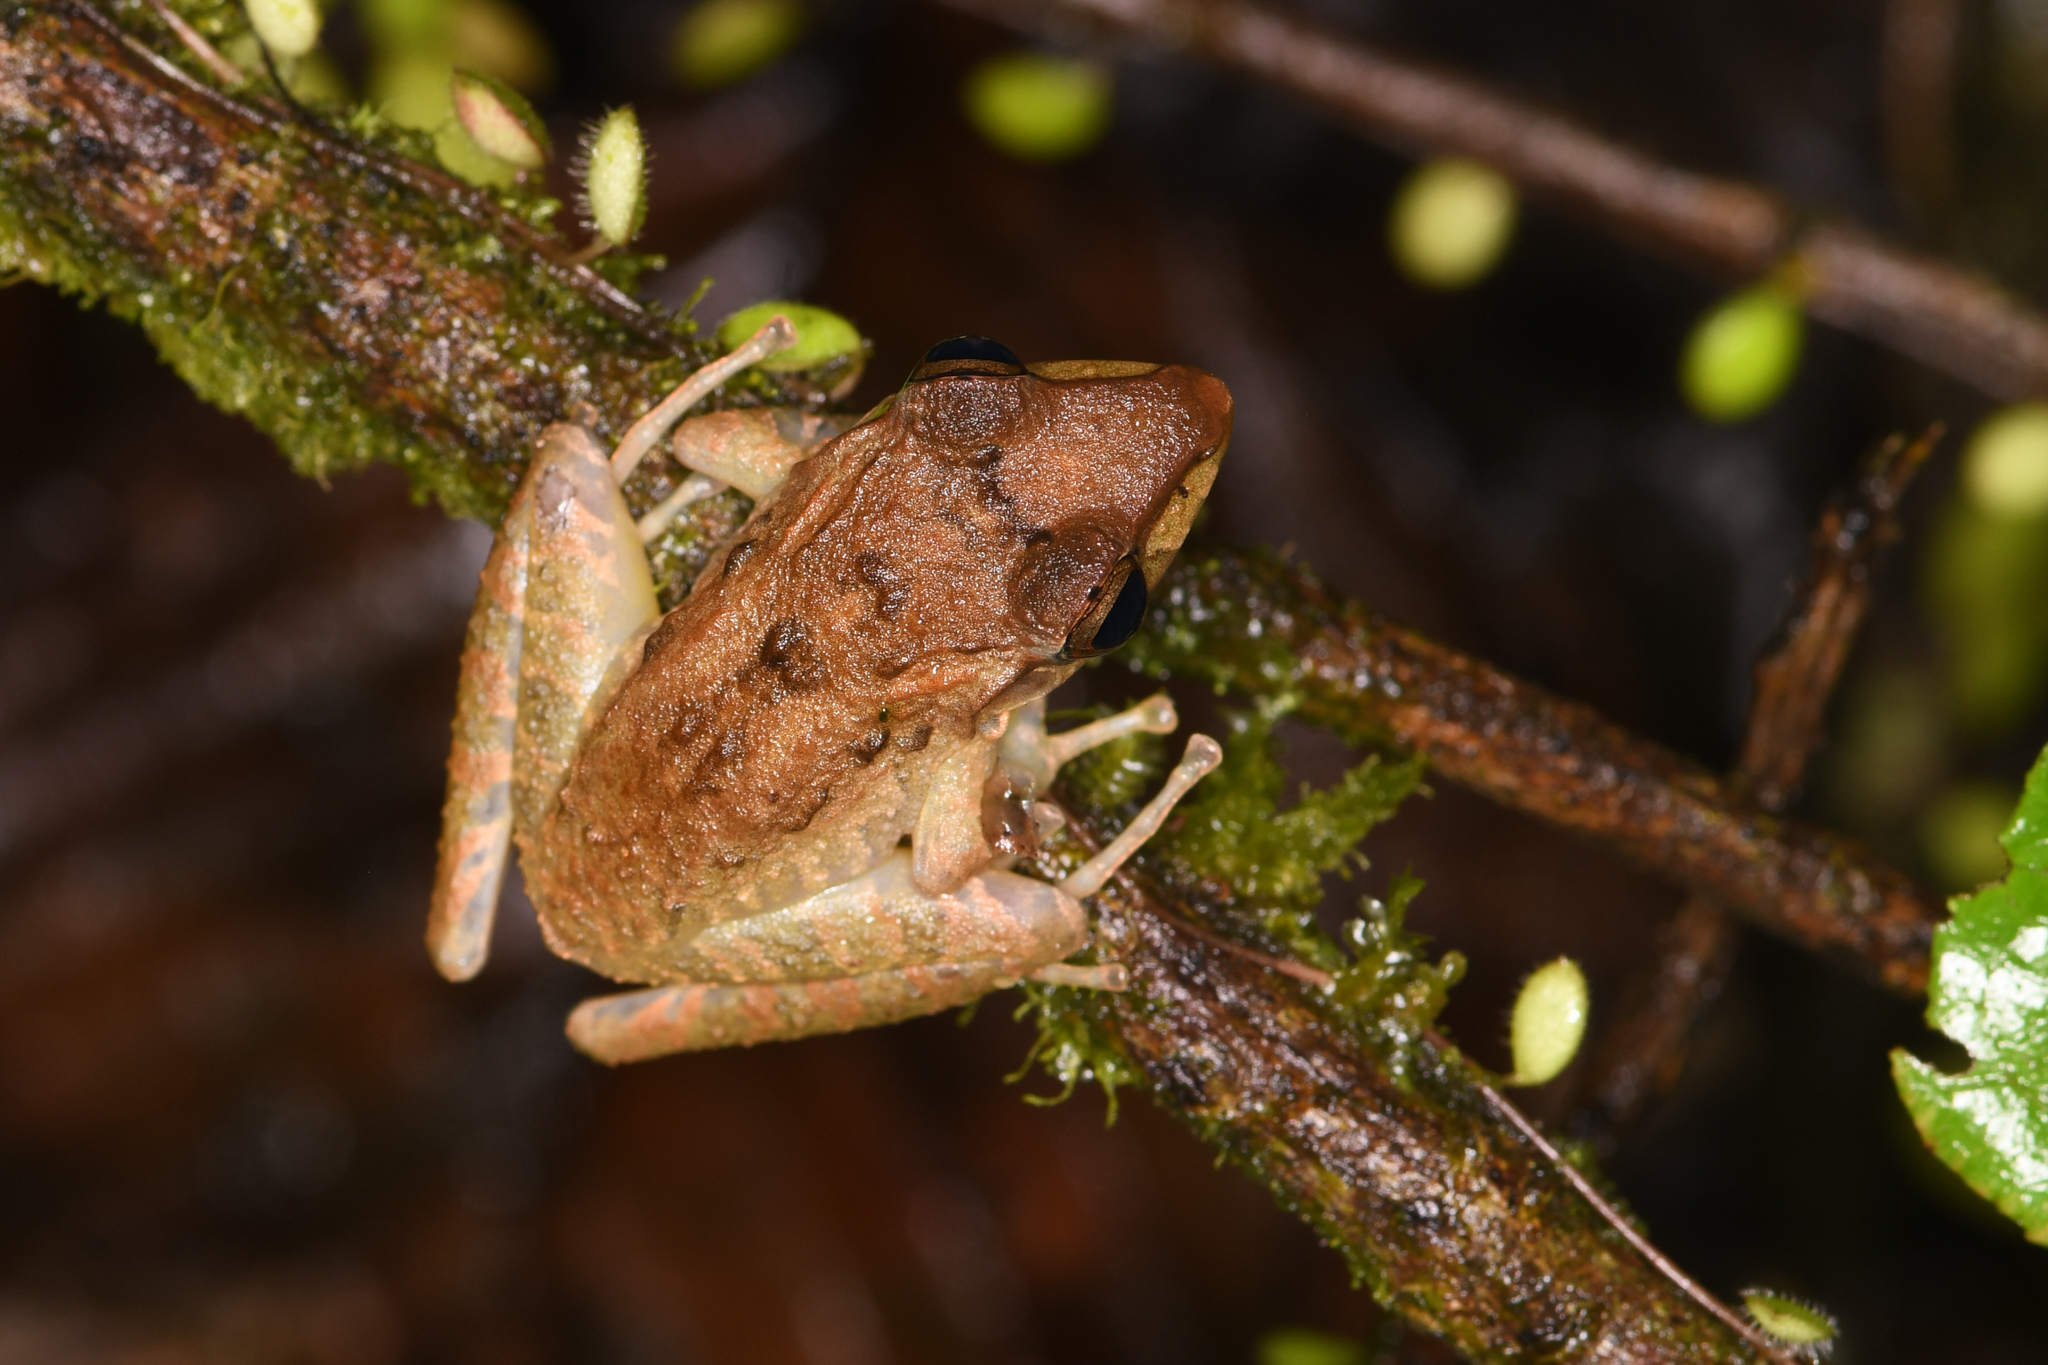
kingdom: Animalia
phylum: Chordata
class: Amphibia
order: Anura
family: Craugastoridae
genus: Craugastor
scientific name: Craugastor fitzingeri
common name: Fitzinger's robber frog
